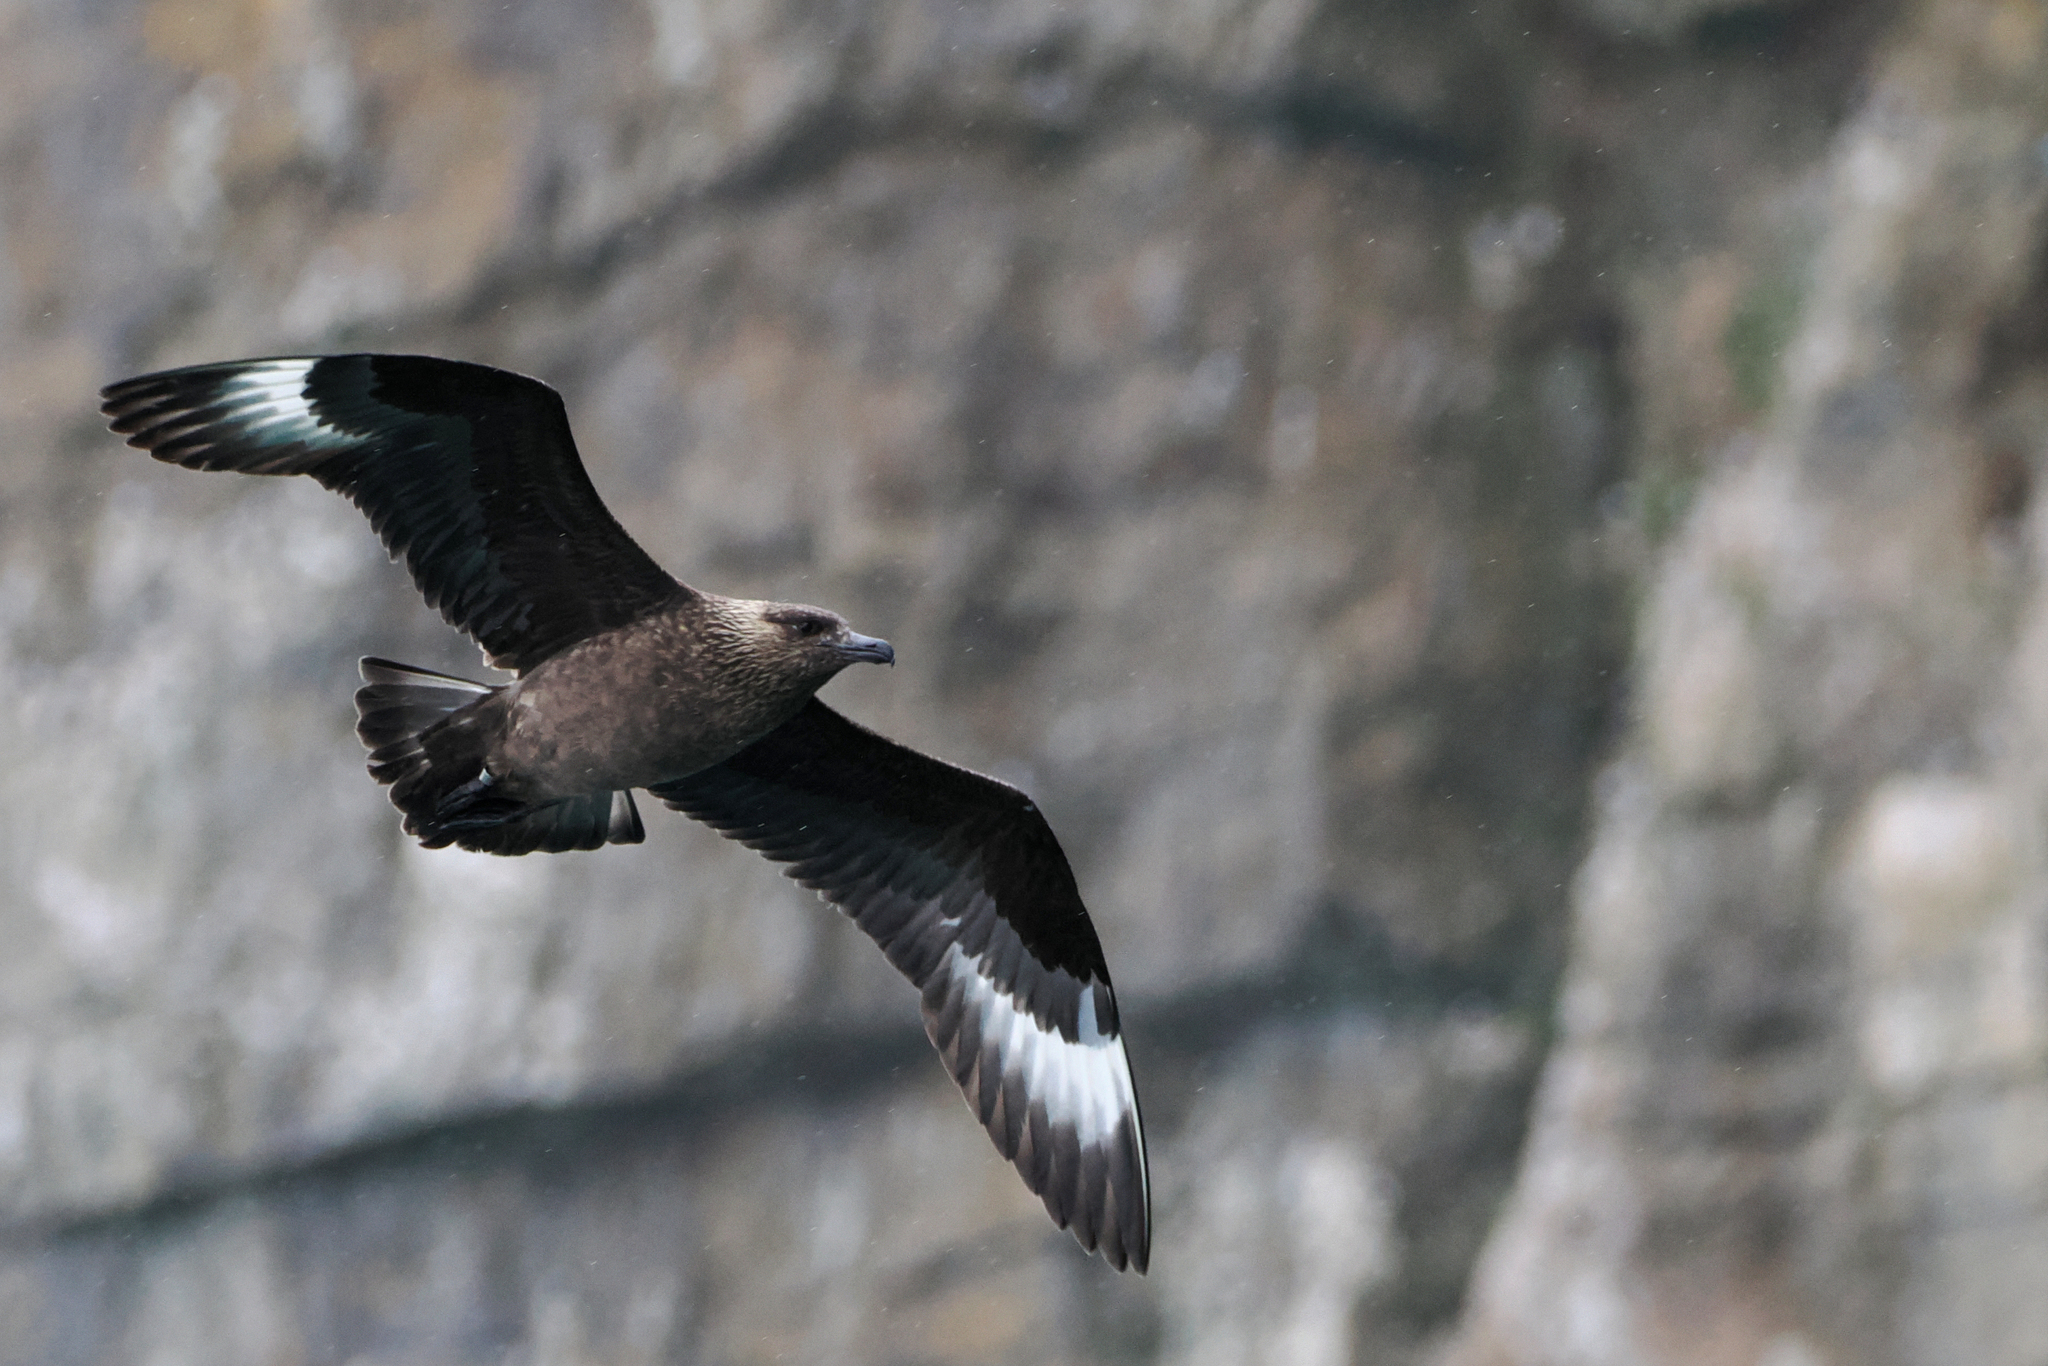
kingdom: Animalia
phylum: Chordata
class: Aves
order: Charadriiformes
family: Stercorariidae
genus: Stercorarius
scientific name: Stercorarius skua
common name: Great skua
